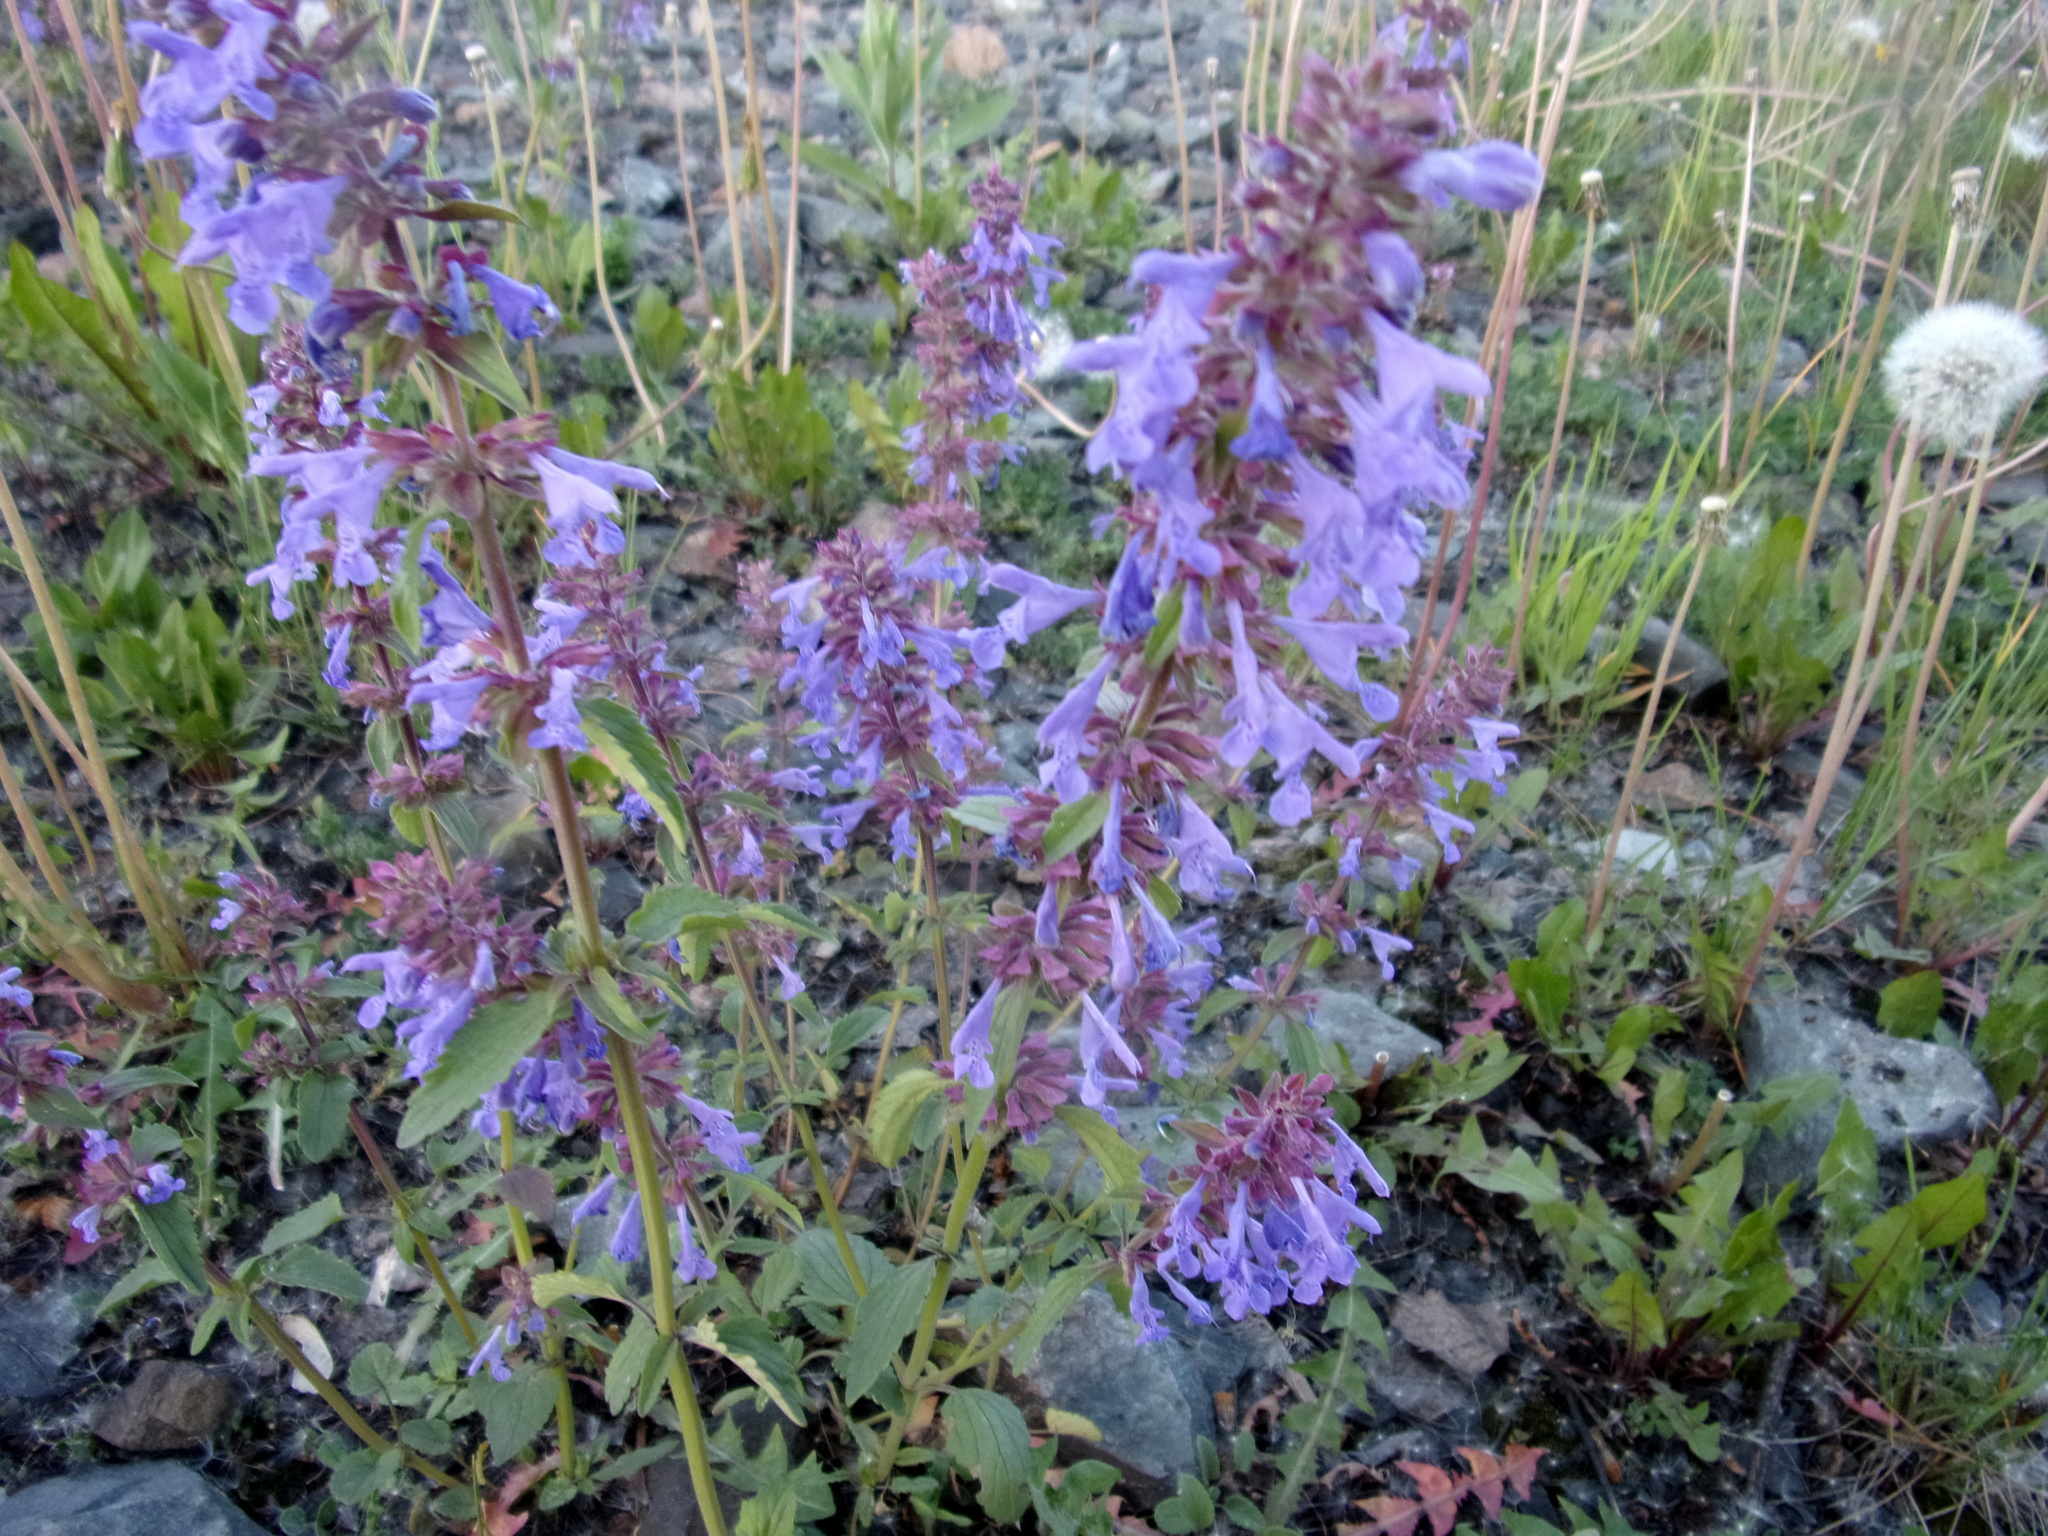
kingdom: Plantae
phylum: Tracheophyta
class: Magnoliopsida
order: Lamiales
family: Lamiaceae
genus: Dracocephalum
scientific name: Dracocephalum nutans
